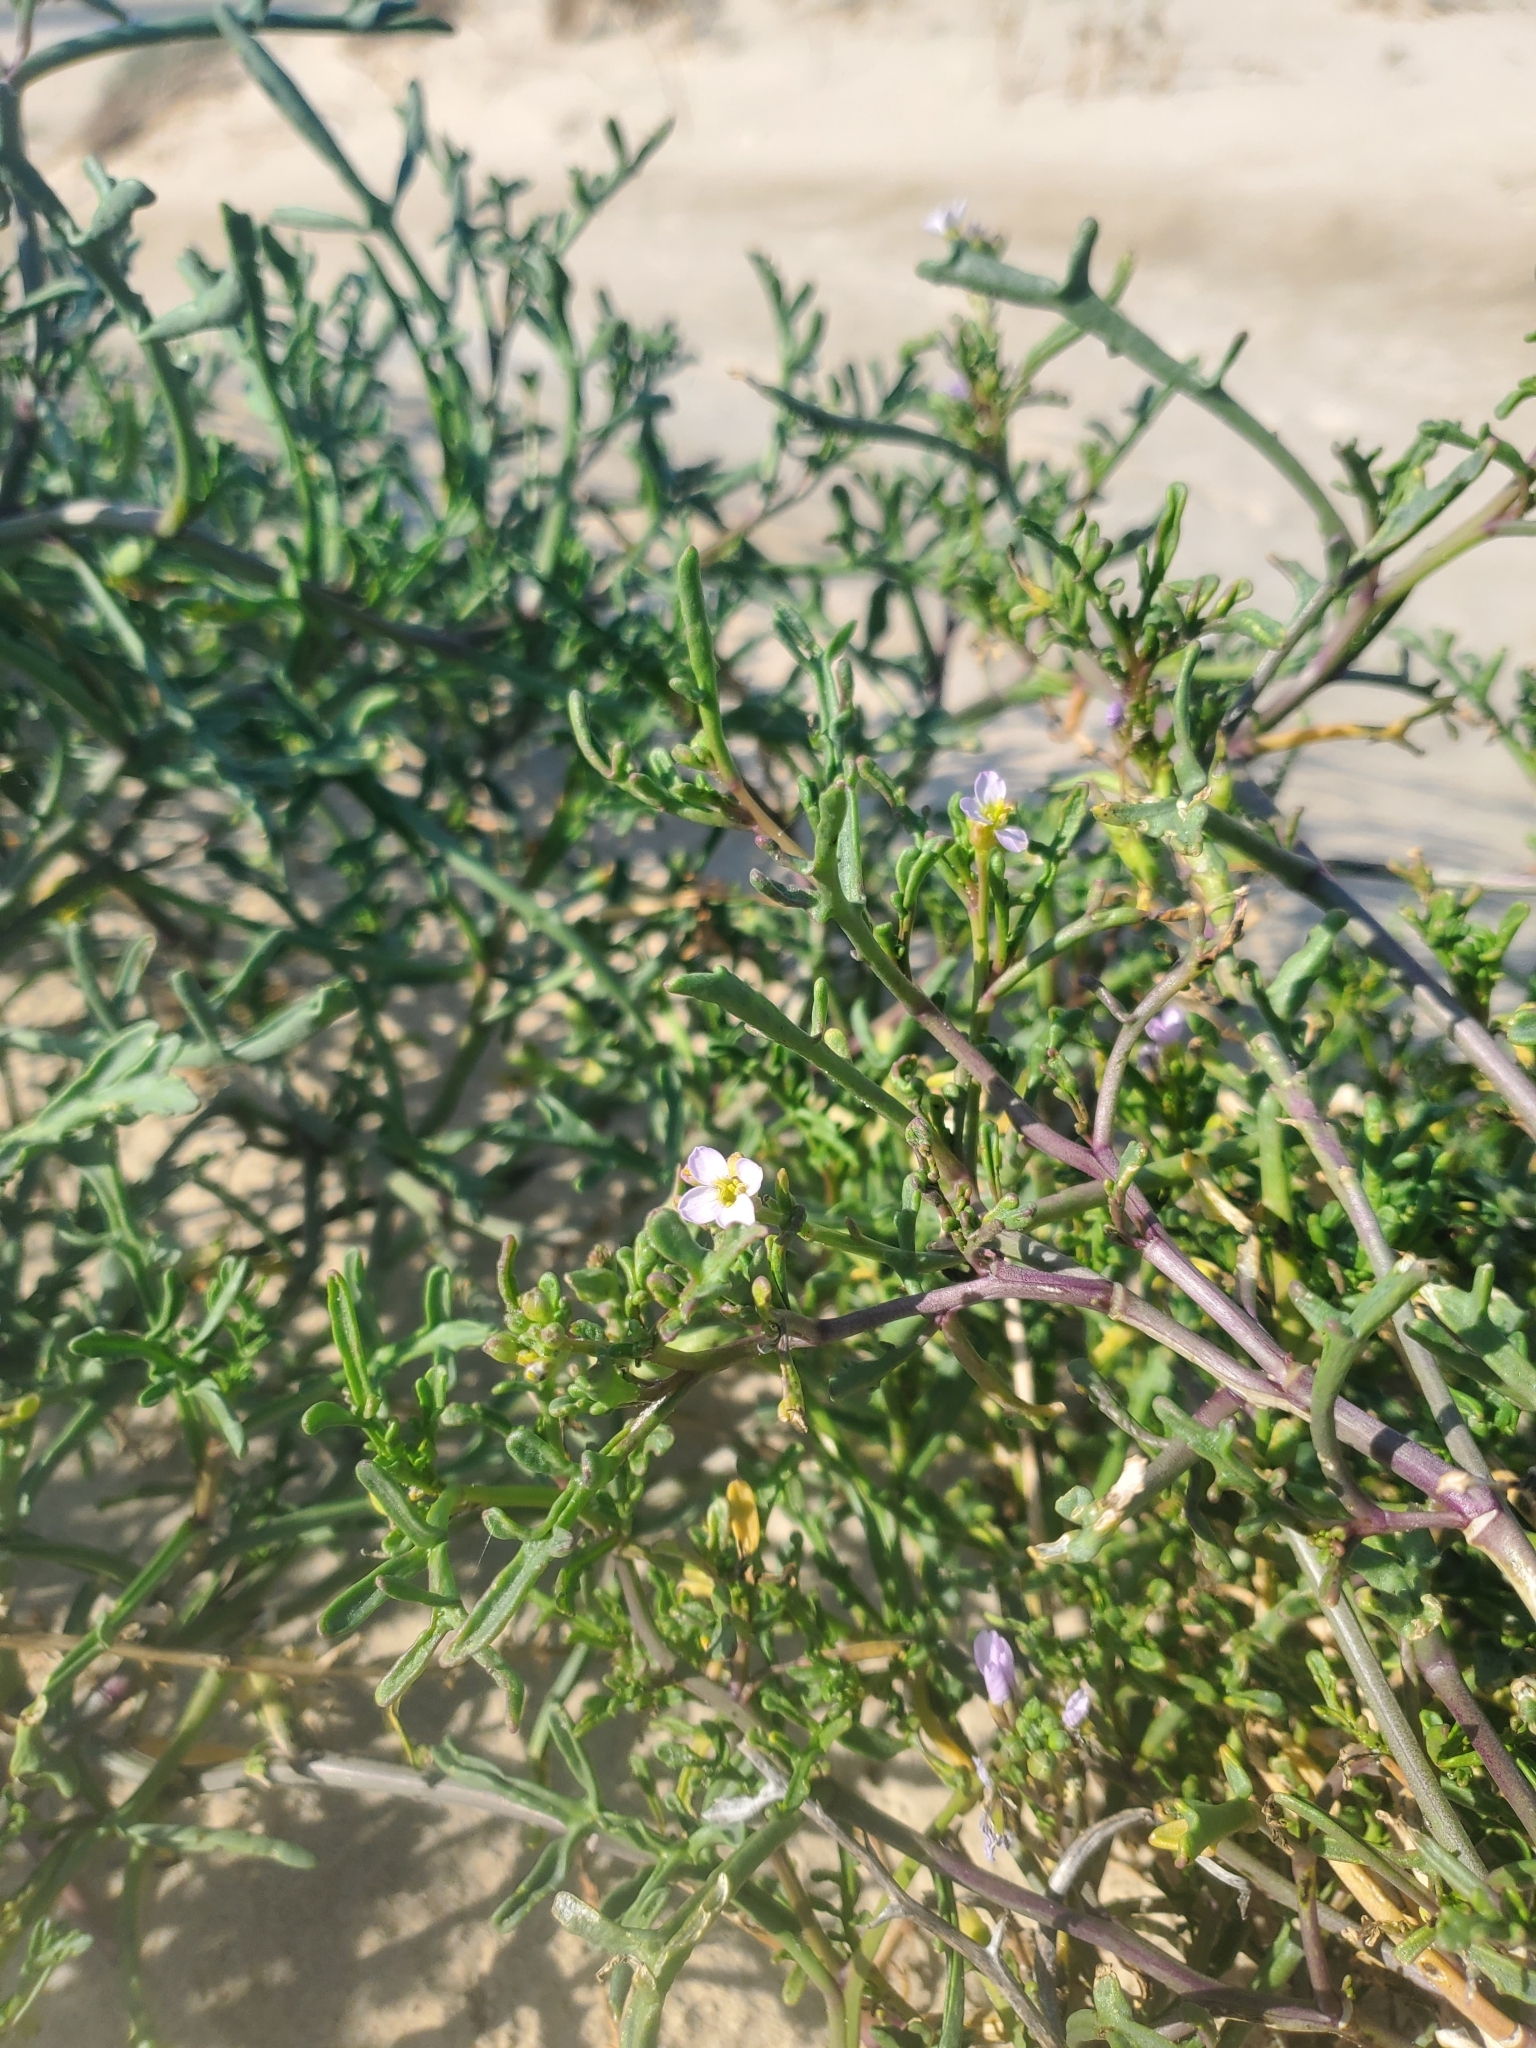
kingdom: Plantae
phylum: Tracheophyta
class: Magnoliopsida
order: Brassicales
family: Brassicaceae
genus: Cakile
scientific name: Cakile maritima
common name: Sea rocket
